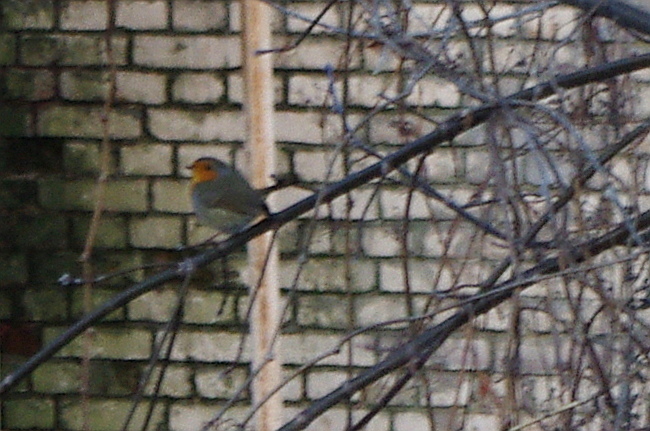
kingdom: Animalia
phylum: Chordata
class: Aves
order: Passeriformes
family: Muscicapidae
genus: Erithacus
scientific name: Erithacus rubecula
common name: European robin
